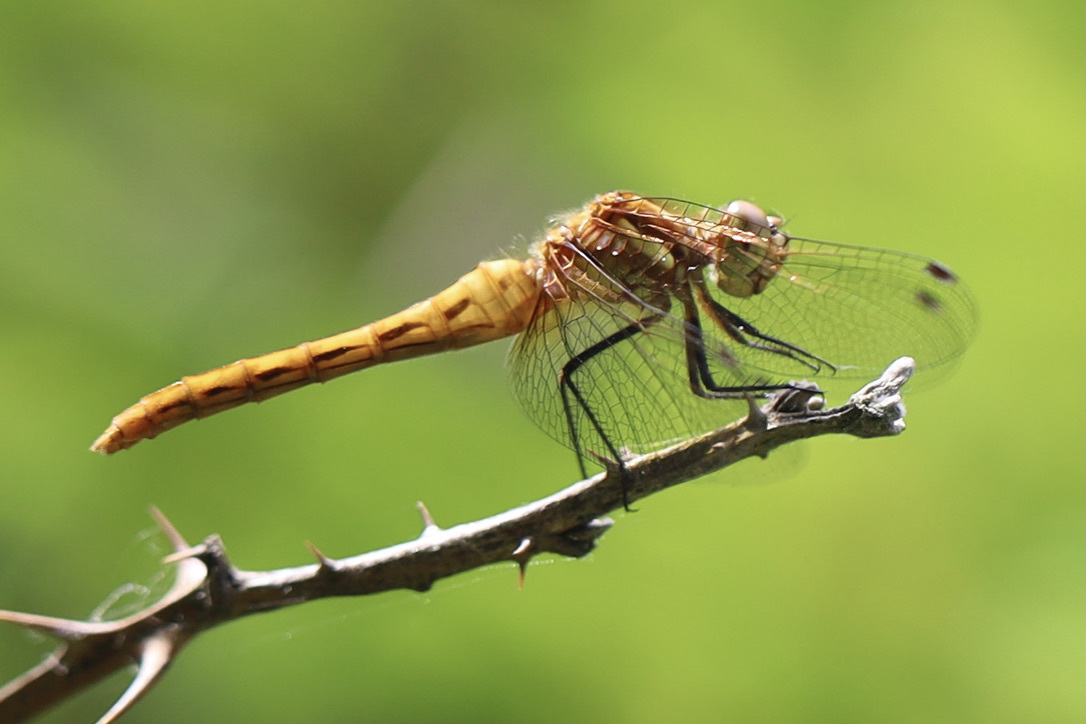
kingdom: Animalia
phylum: Arthropoda
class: Insecta
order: Odonata
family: Libellulidae
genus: Sympetrum
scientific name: Sympetrum pallipes
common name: Striped meadowhawk
